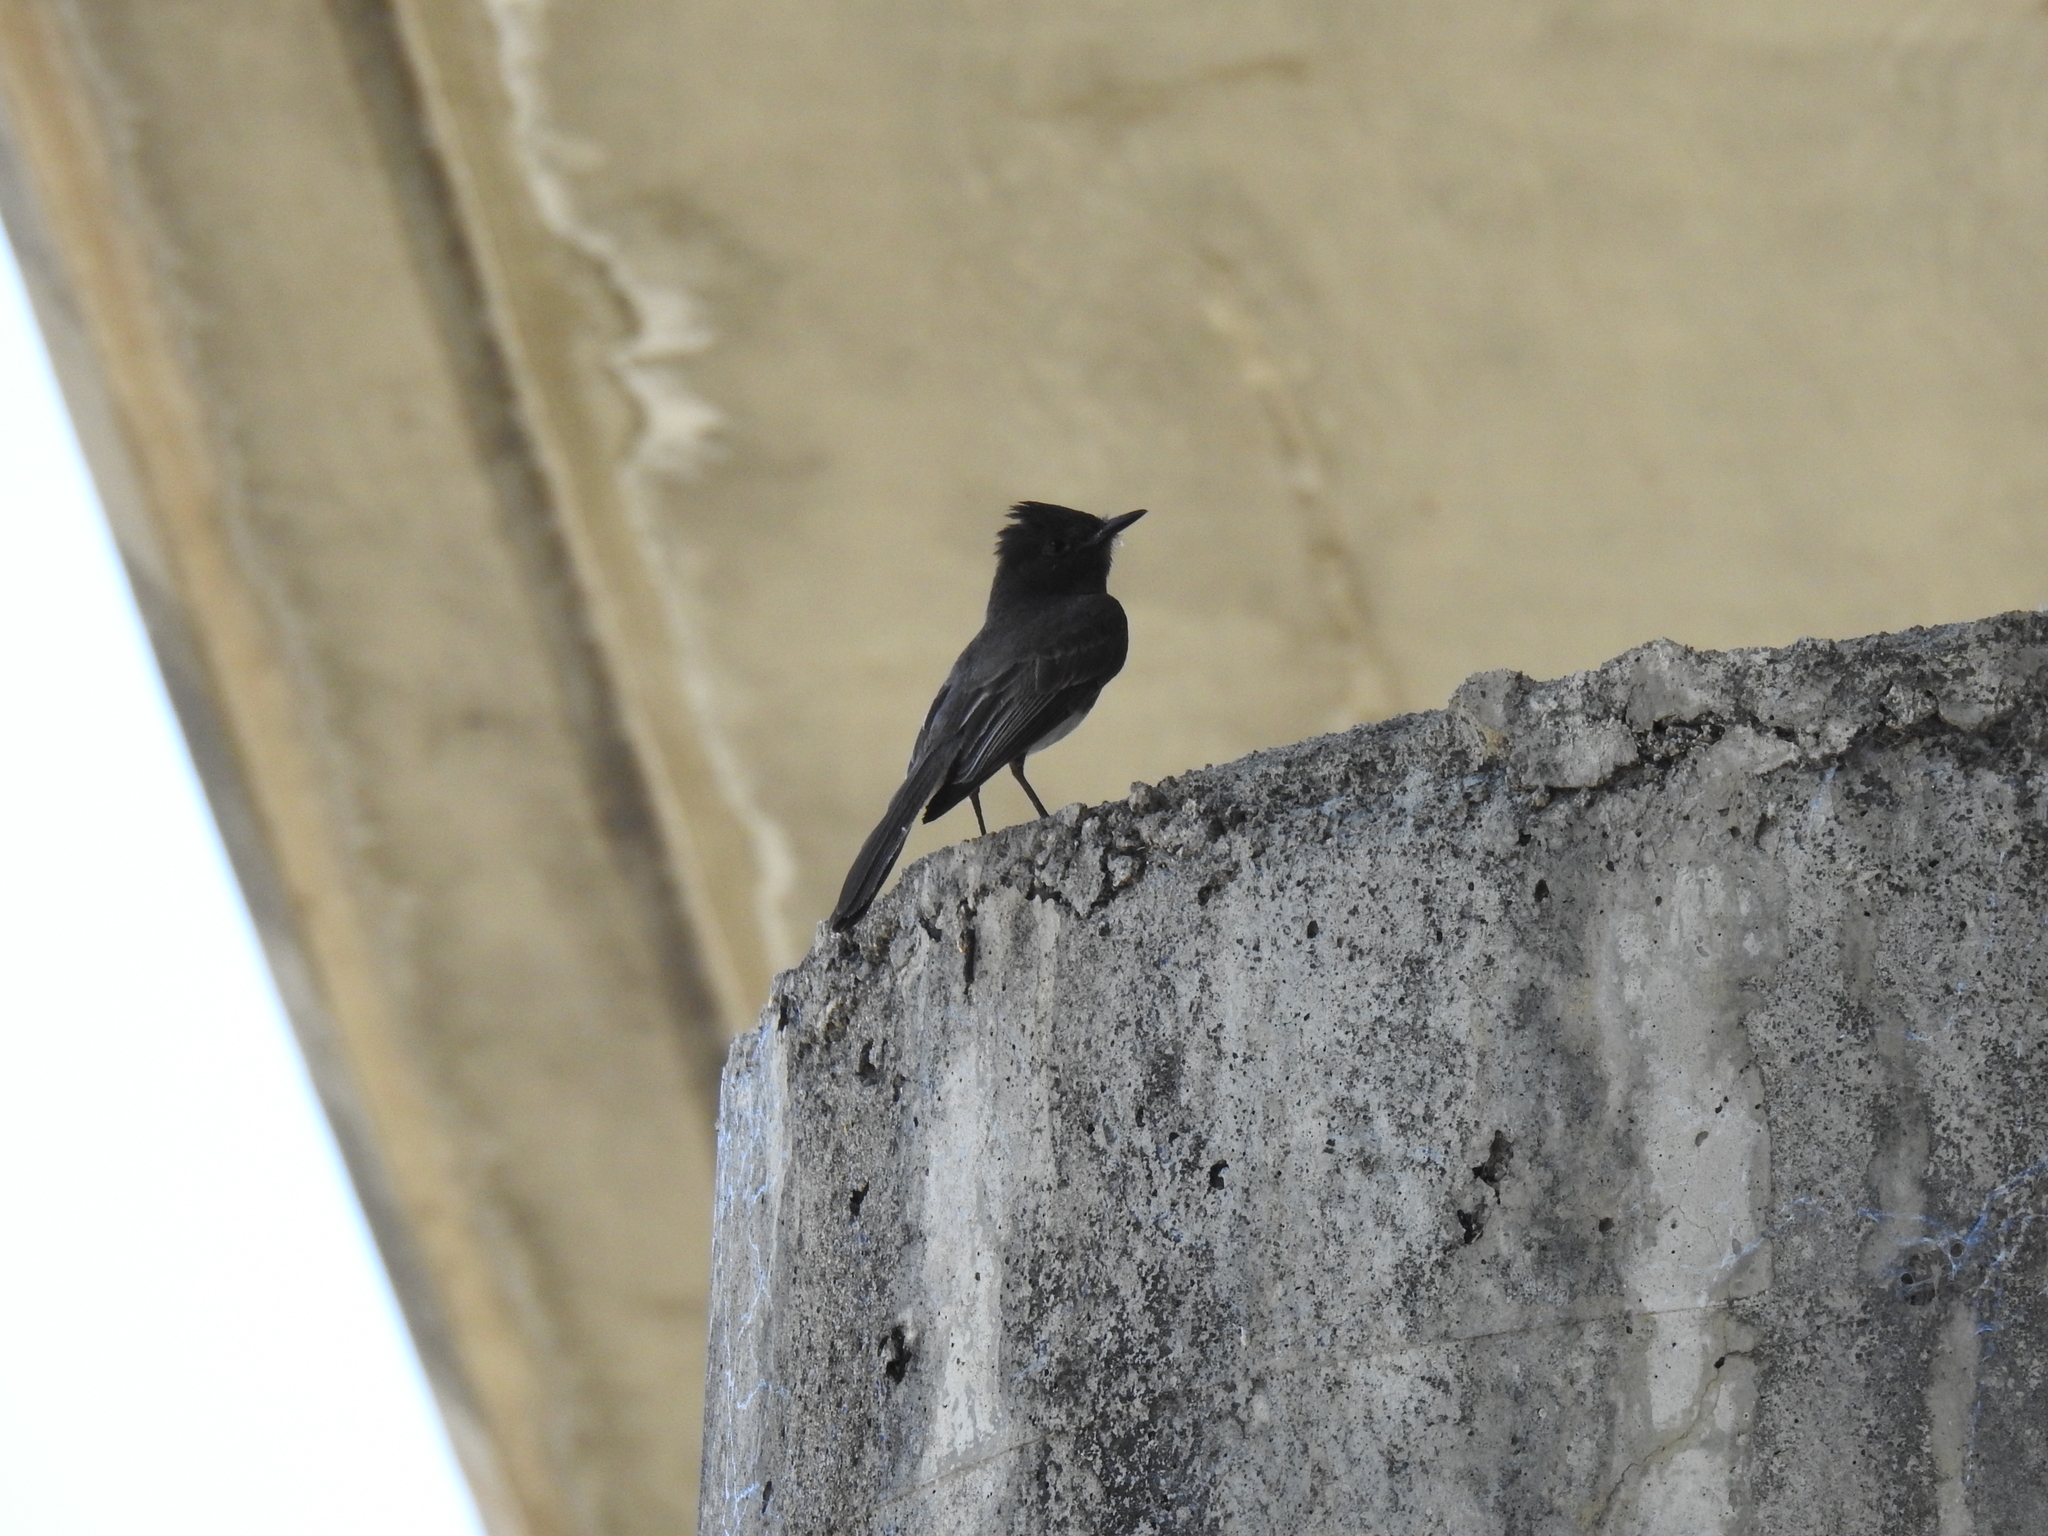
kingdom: Animalia
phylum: Chordata
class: Aves
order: Passeriformes
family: Tyrannidae
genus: Sayornis
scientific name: Sayornis nigricans
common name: Black phoebe
